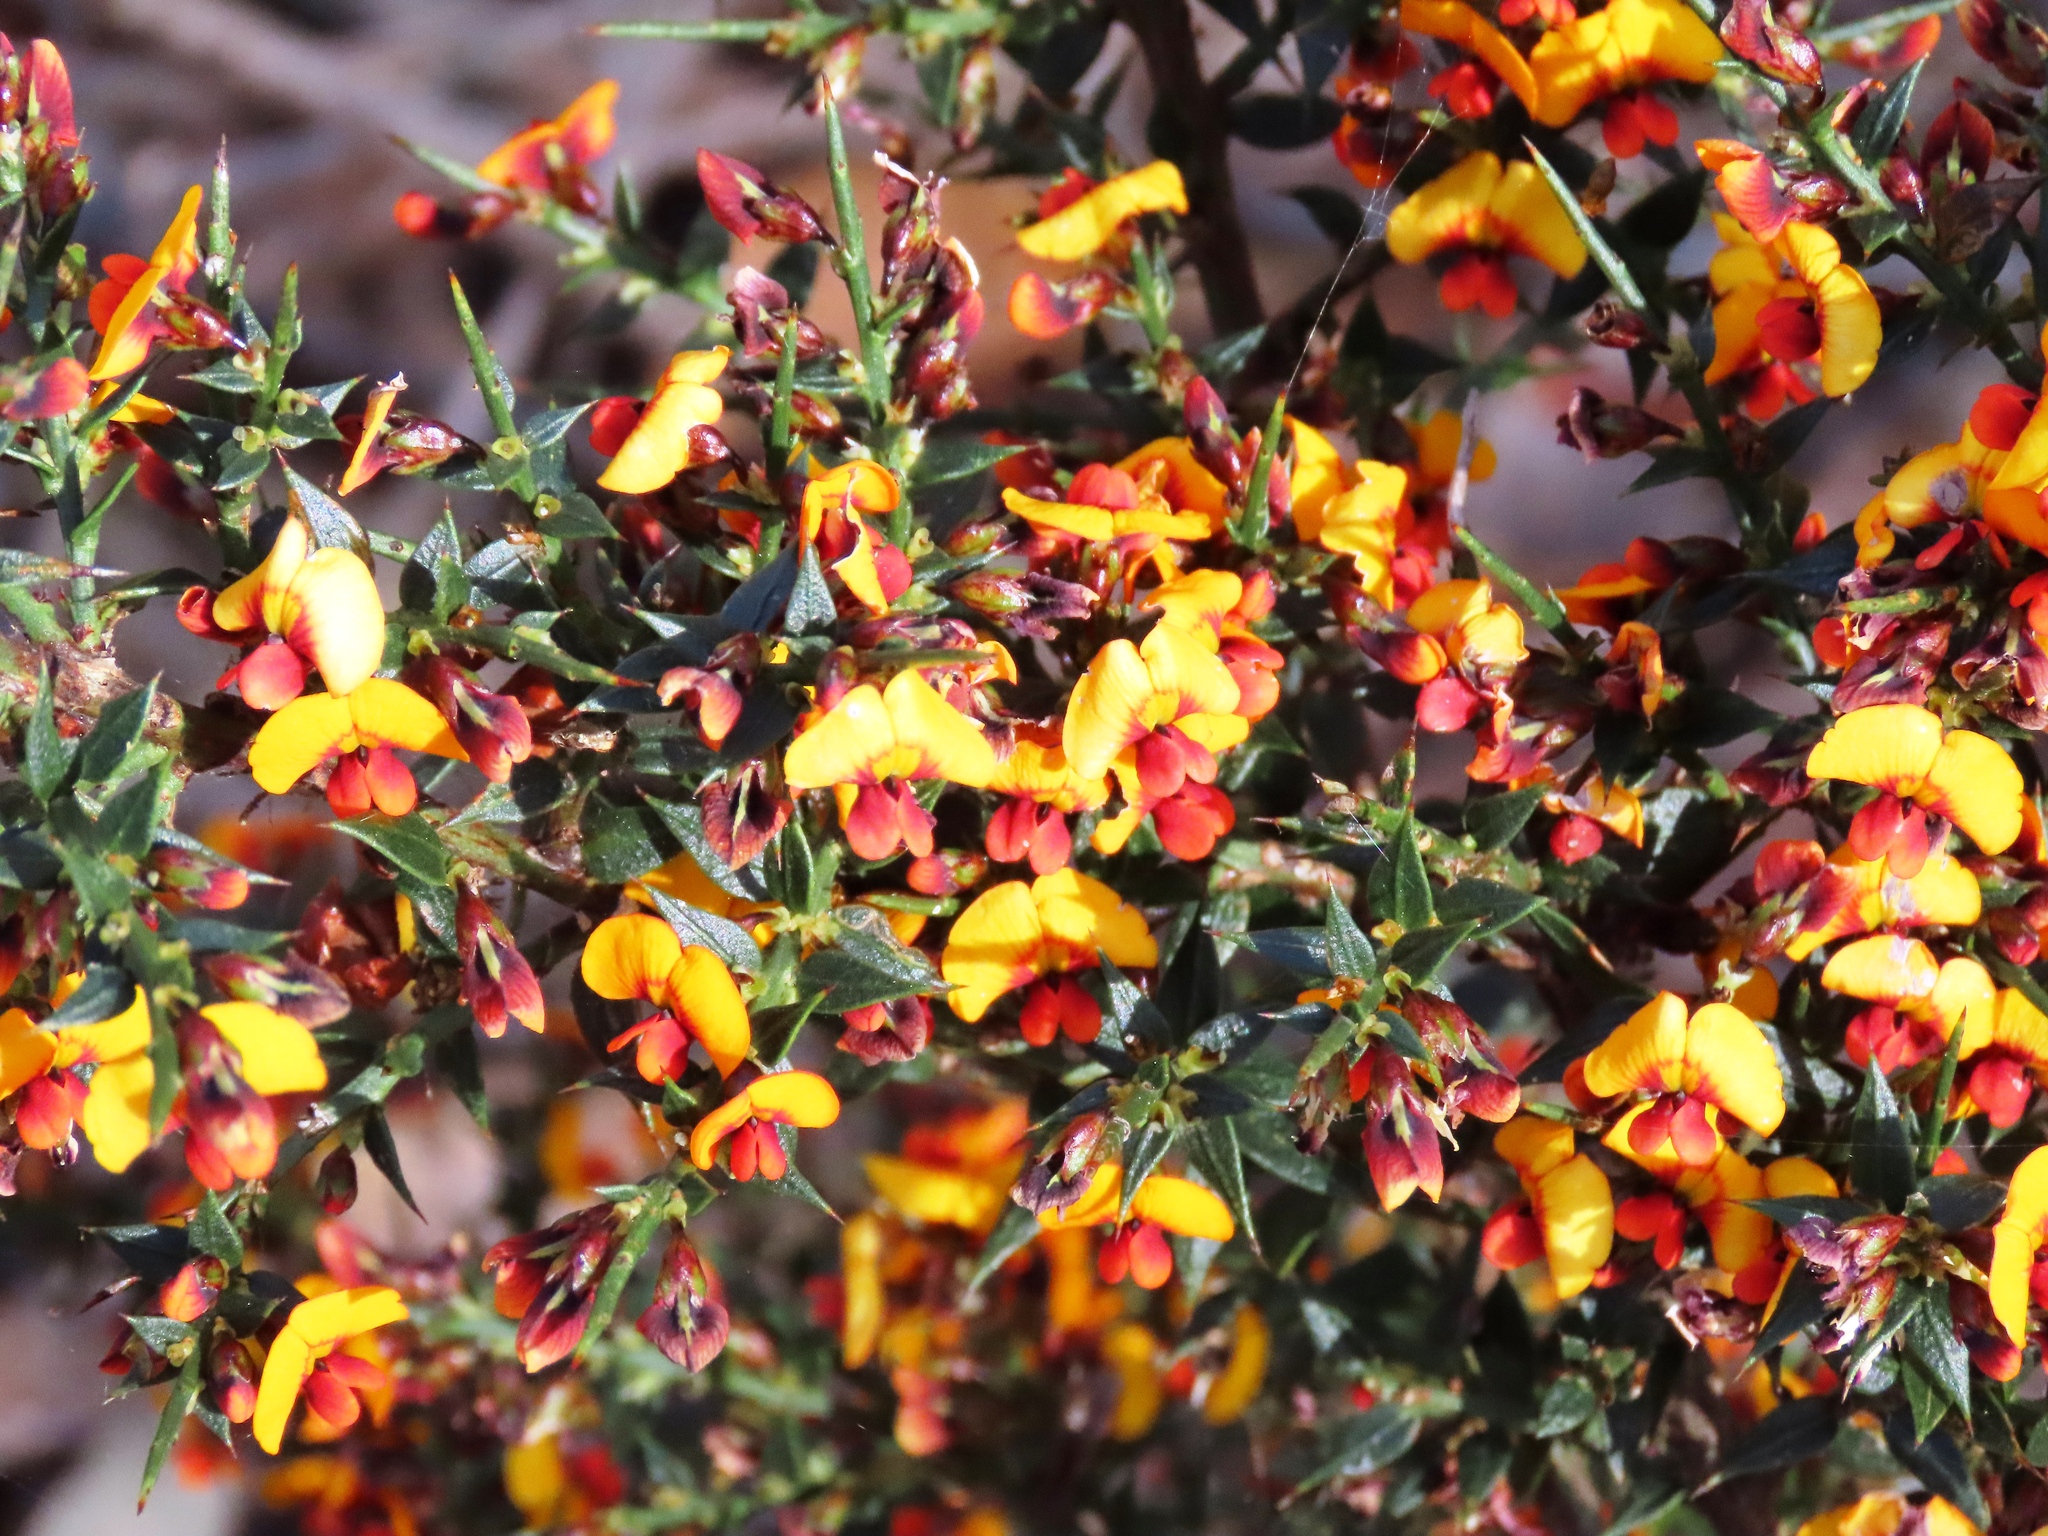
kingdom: Plantae
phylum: Tracheophyta
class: Magnoliopsida
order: Fabales
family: Fabaceae
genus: Daviesia
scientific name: Daviesia ulicifolia
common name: Gorse bitter-pea
